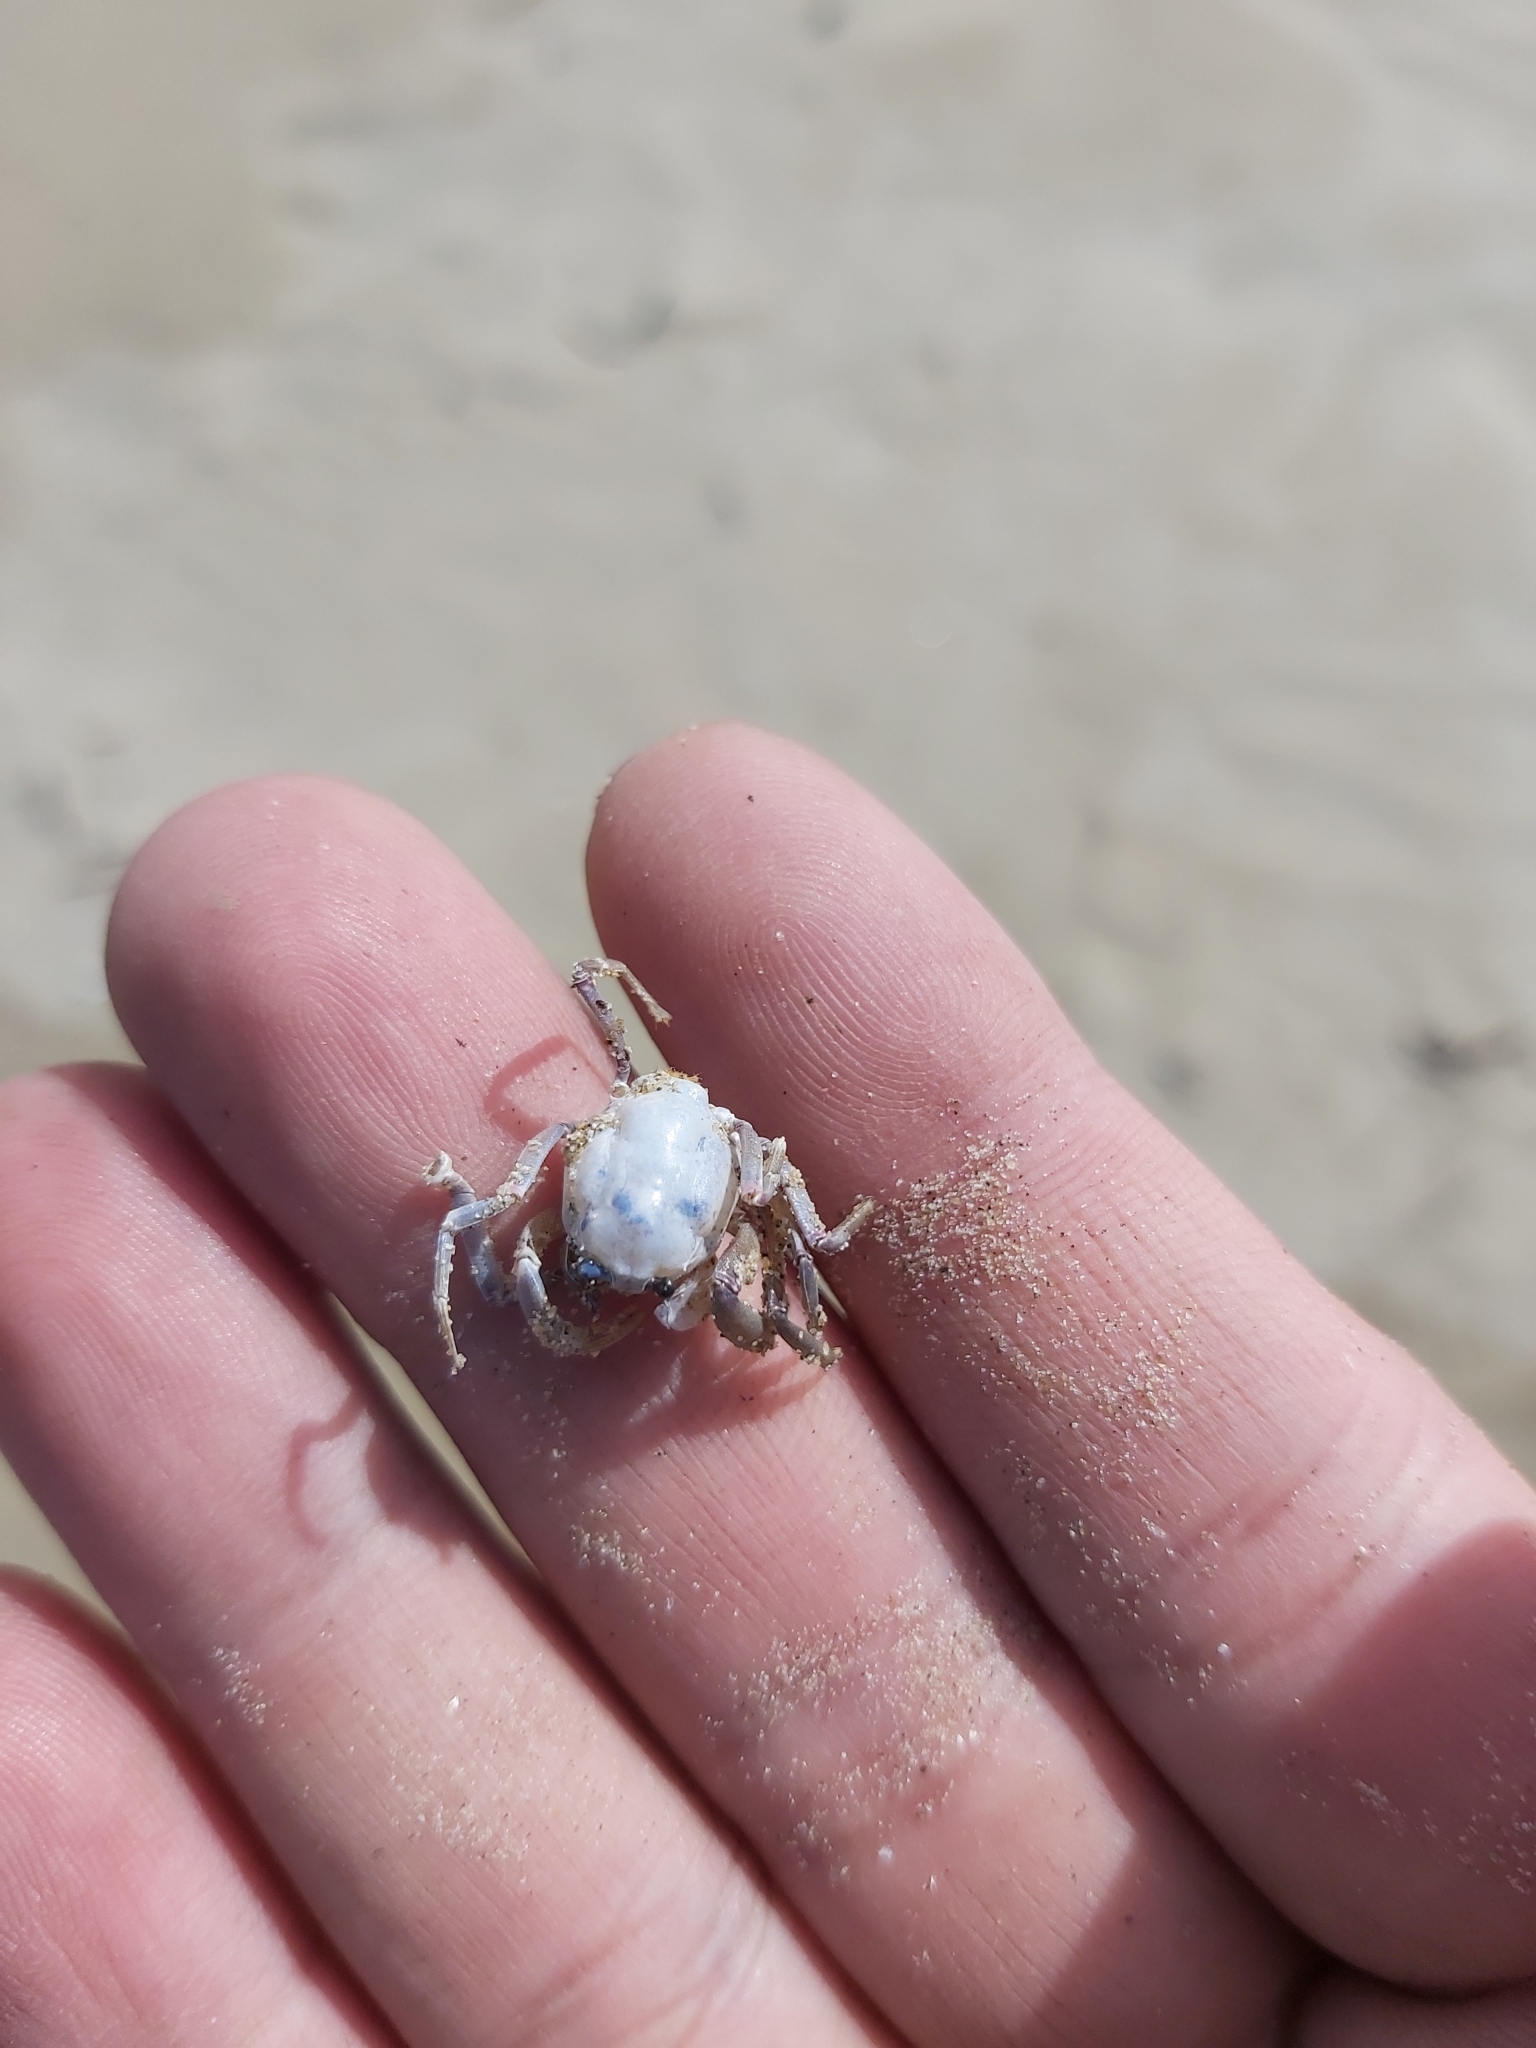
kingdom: Animalia
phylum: Arthropoda
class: Malacostraca
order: Decapoda
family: Mictyridae
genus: Mictyris
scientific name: Mictyris longicarpus
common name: Light-blue soldier crab
